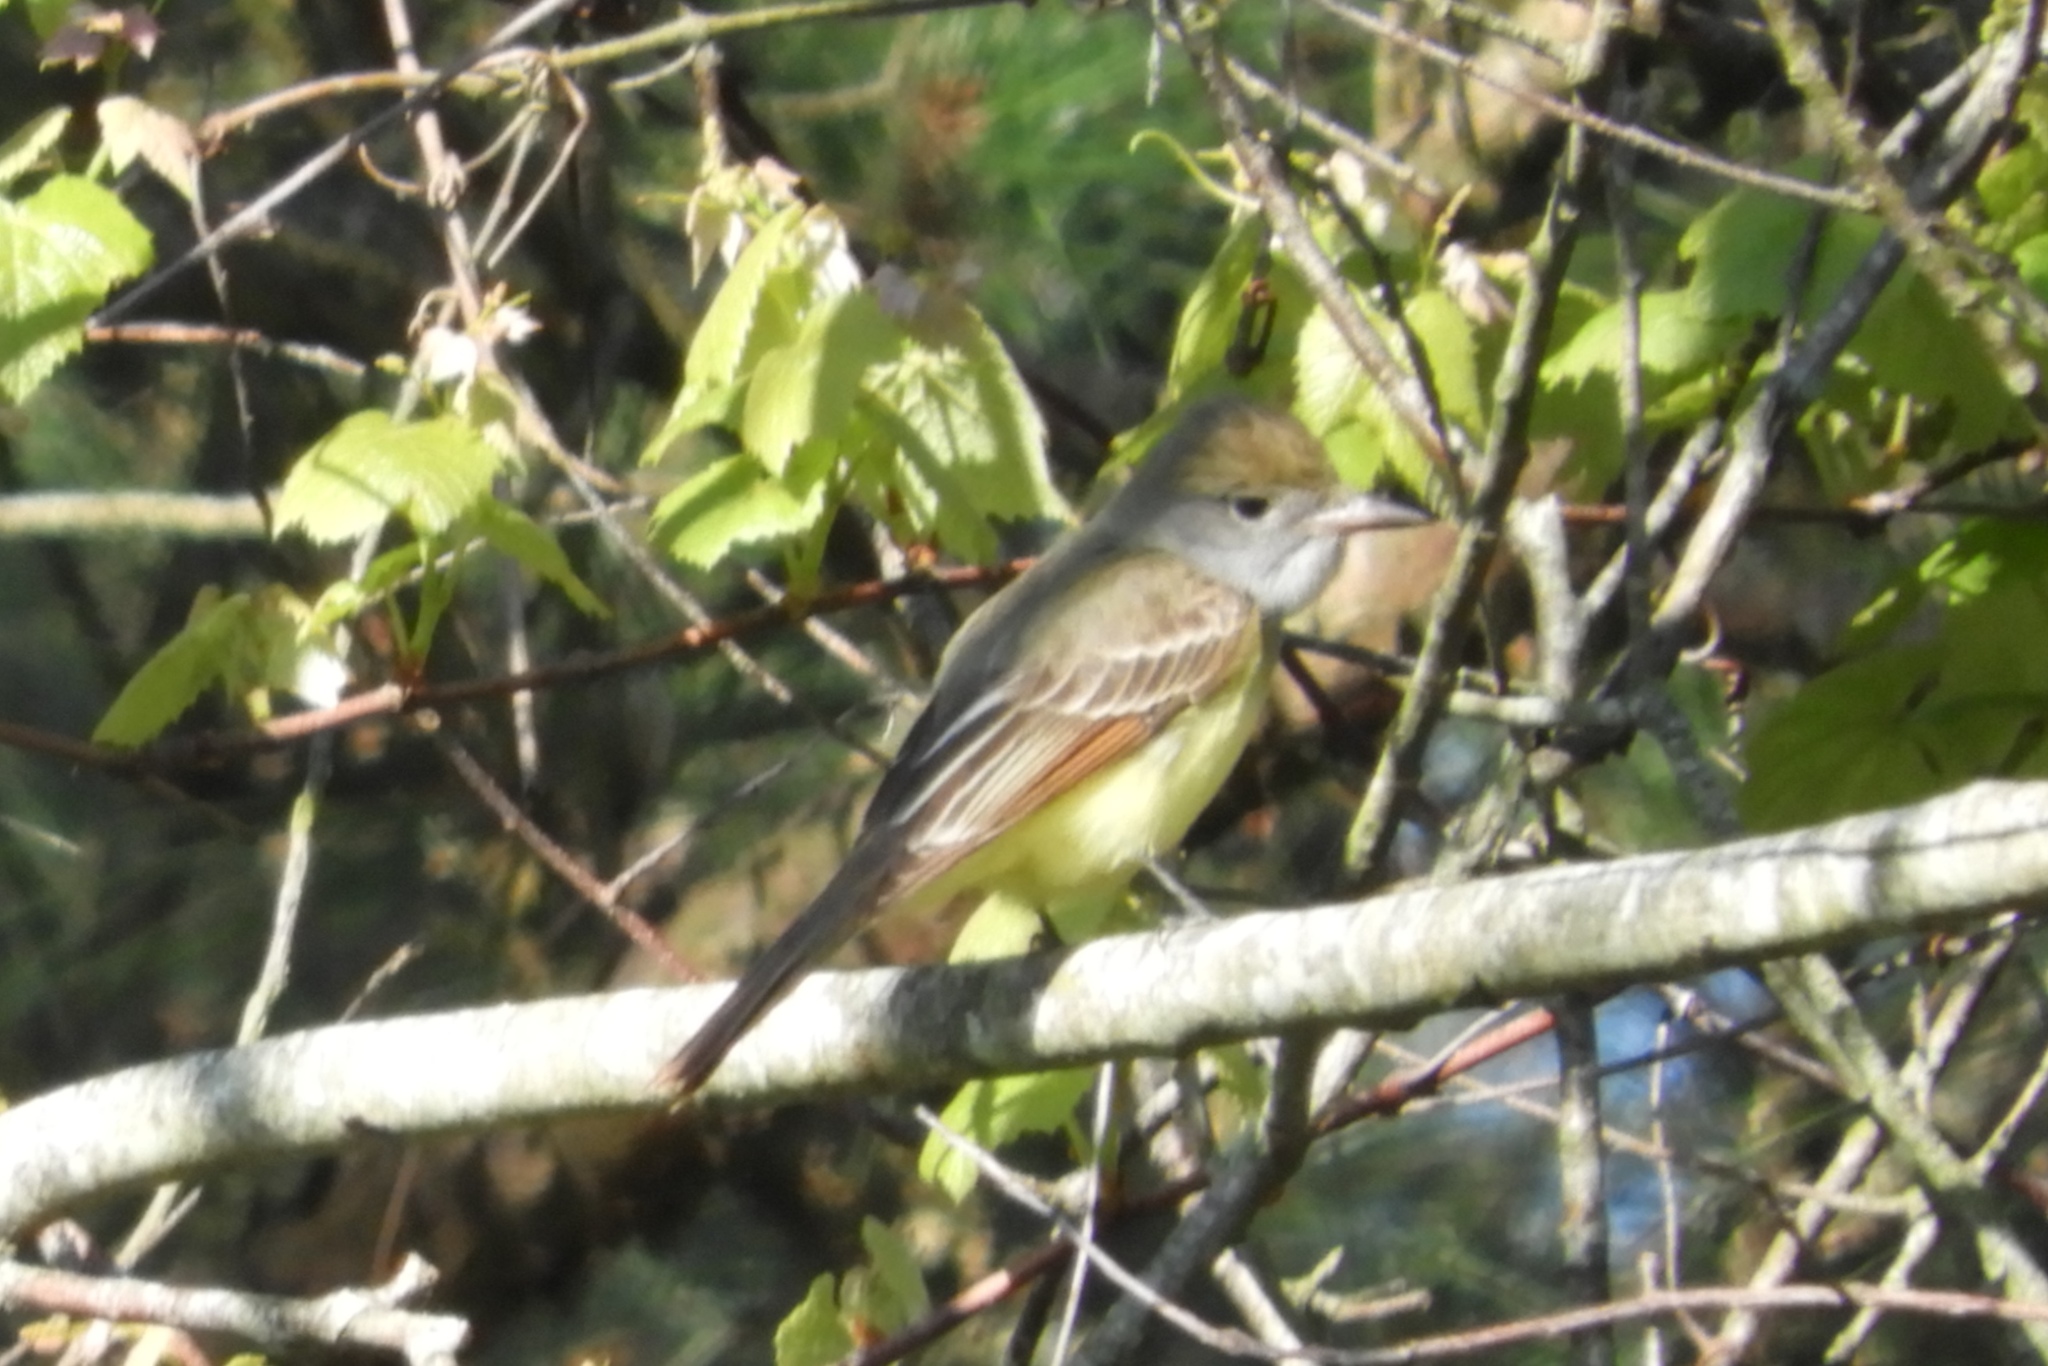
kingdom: Animalia
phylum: Chordata
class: Aves
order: Passeriformes
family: Tyrannidae
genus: Myiarchus
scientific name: Myiarchus crinitus
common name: Great crested flycatcher
